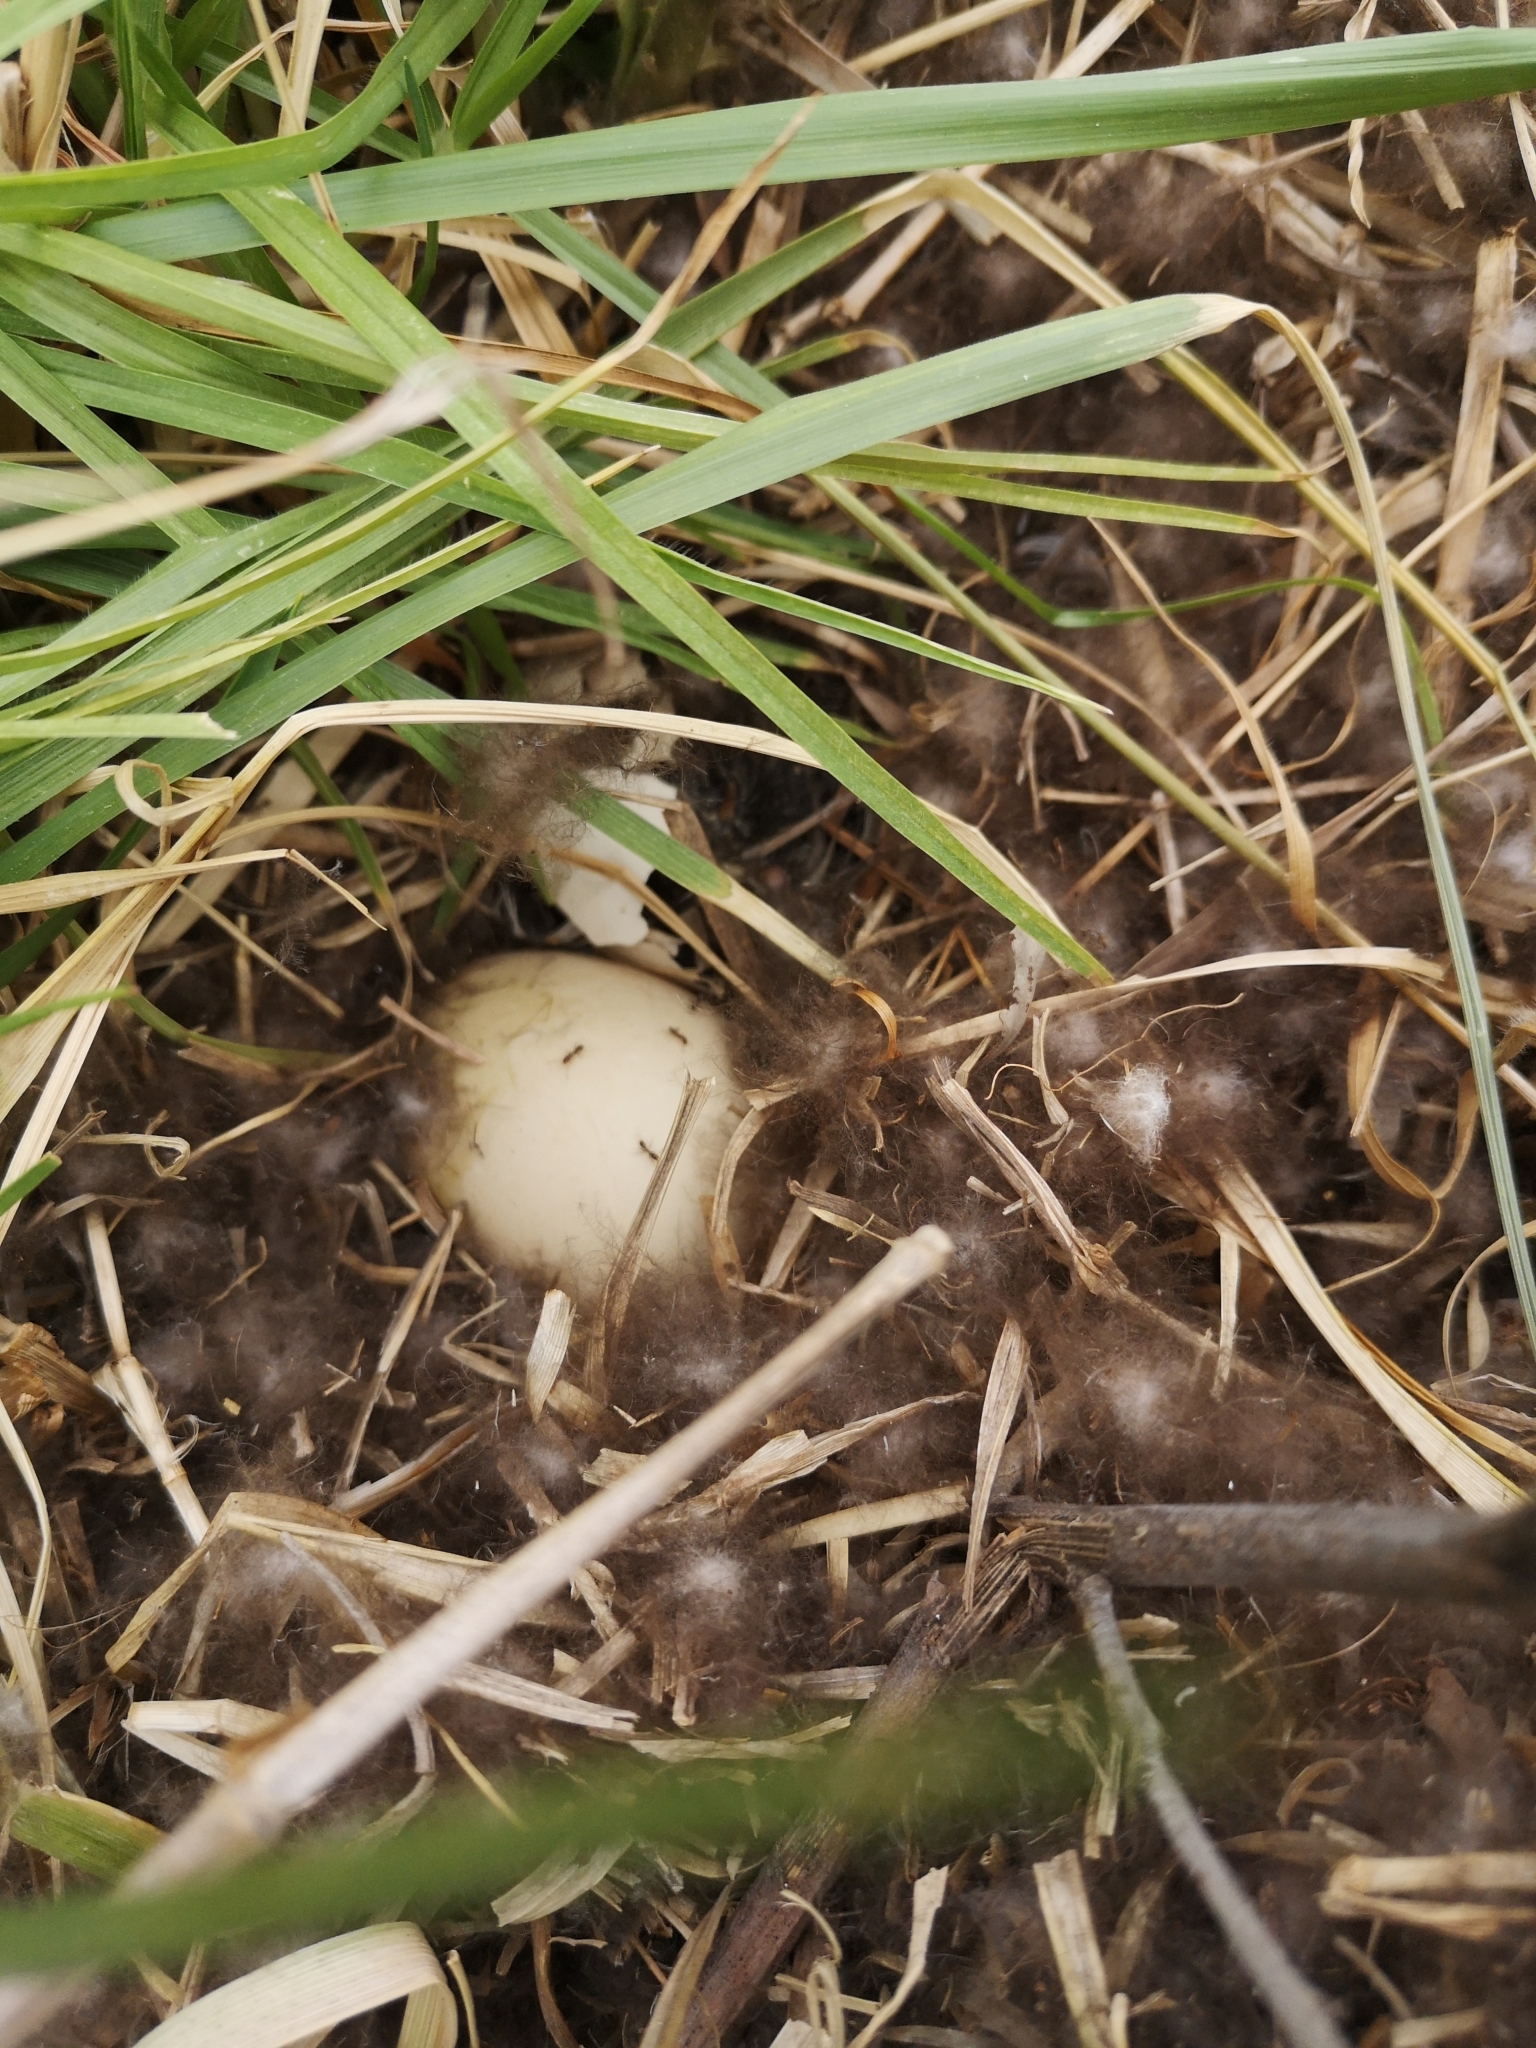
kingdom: Animalia
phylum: Chordata
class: Aves
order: Anseriformes
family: Anatidae
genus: Anas
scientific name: Anas georgica
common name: Yellow-billed pintail
